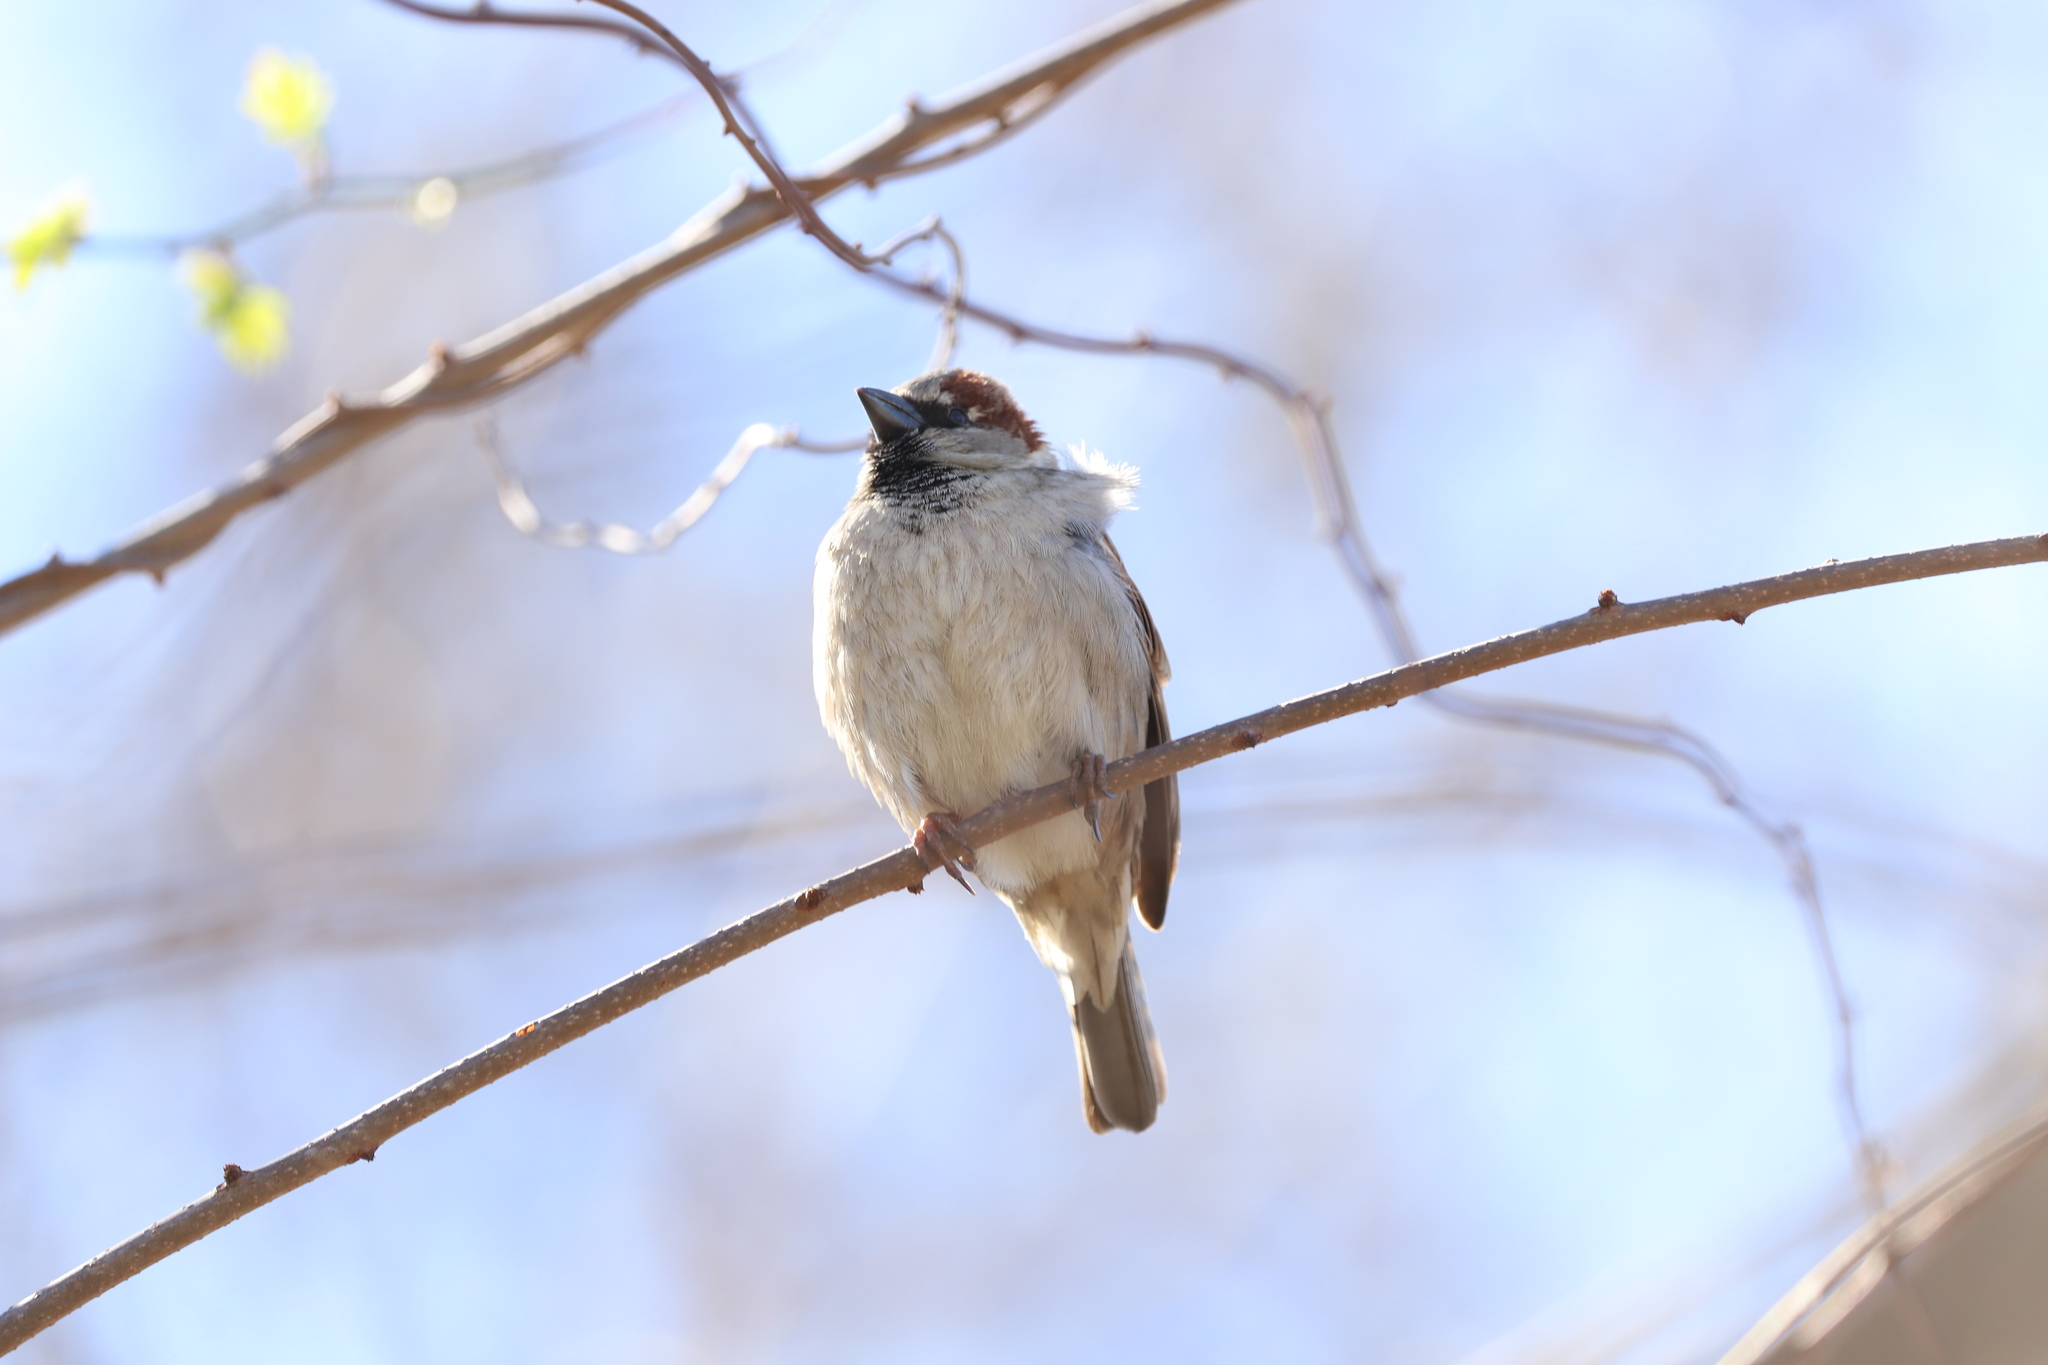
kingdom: Animalia
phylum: Chordata
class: Aves
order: Passeriformes
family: Passeridae
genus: Passer
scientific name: Passer domesticus
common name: House sparrow
